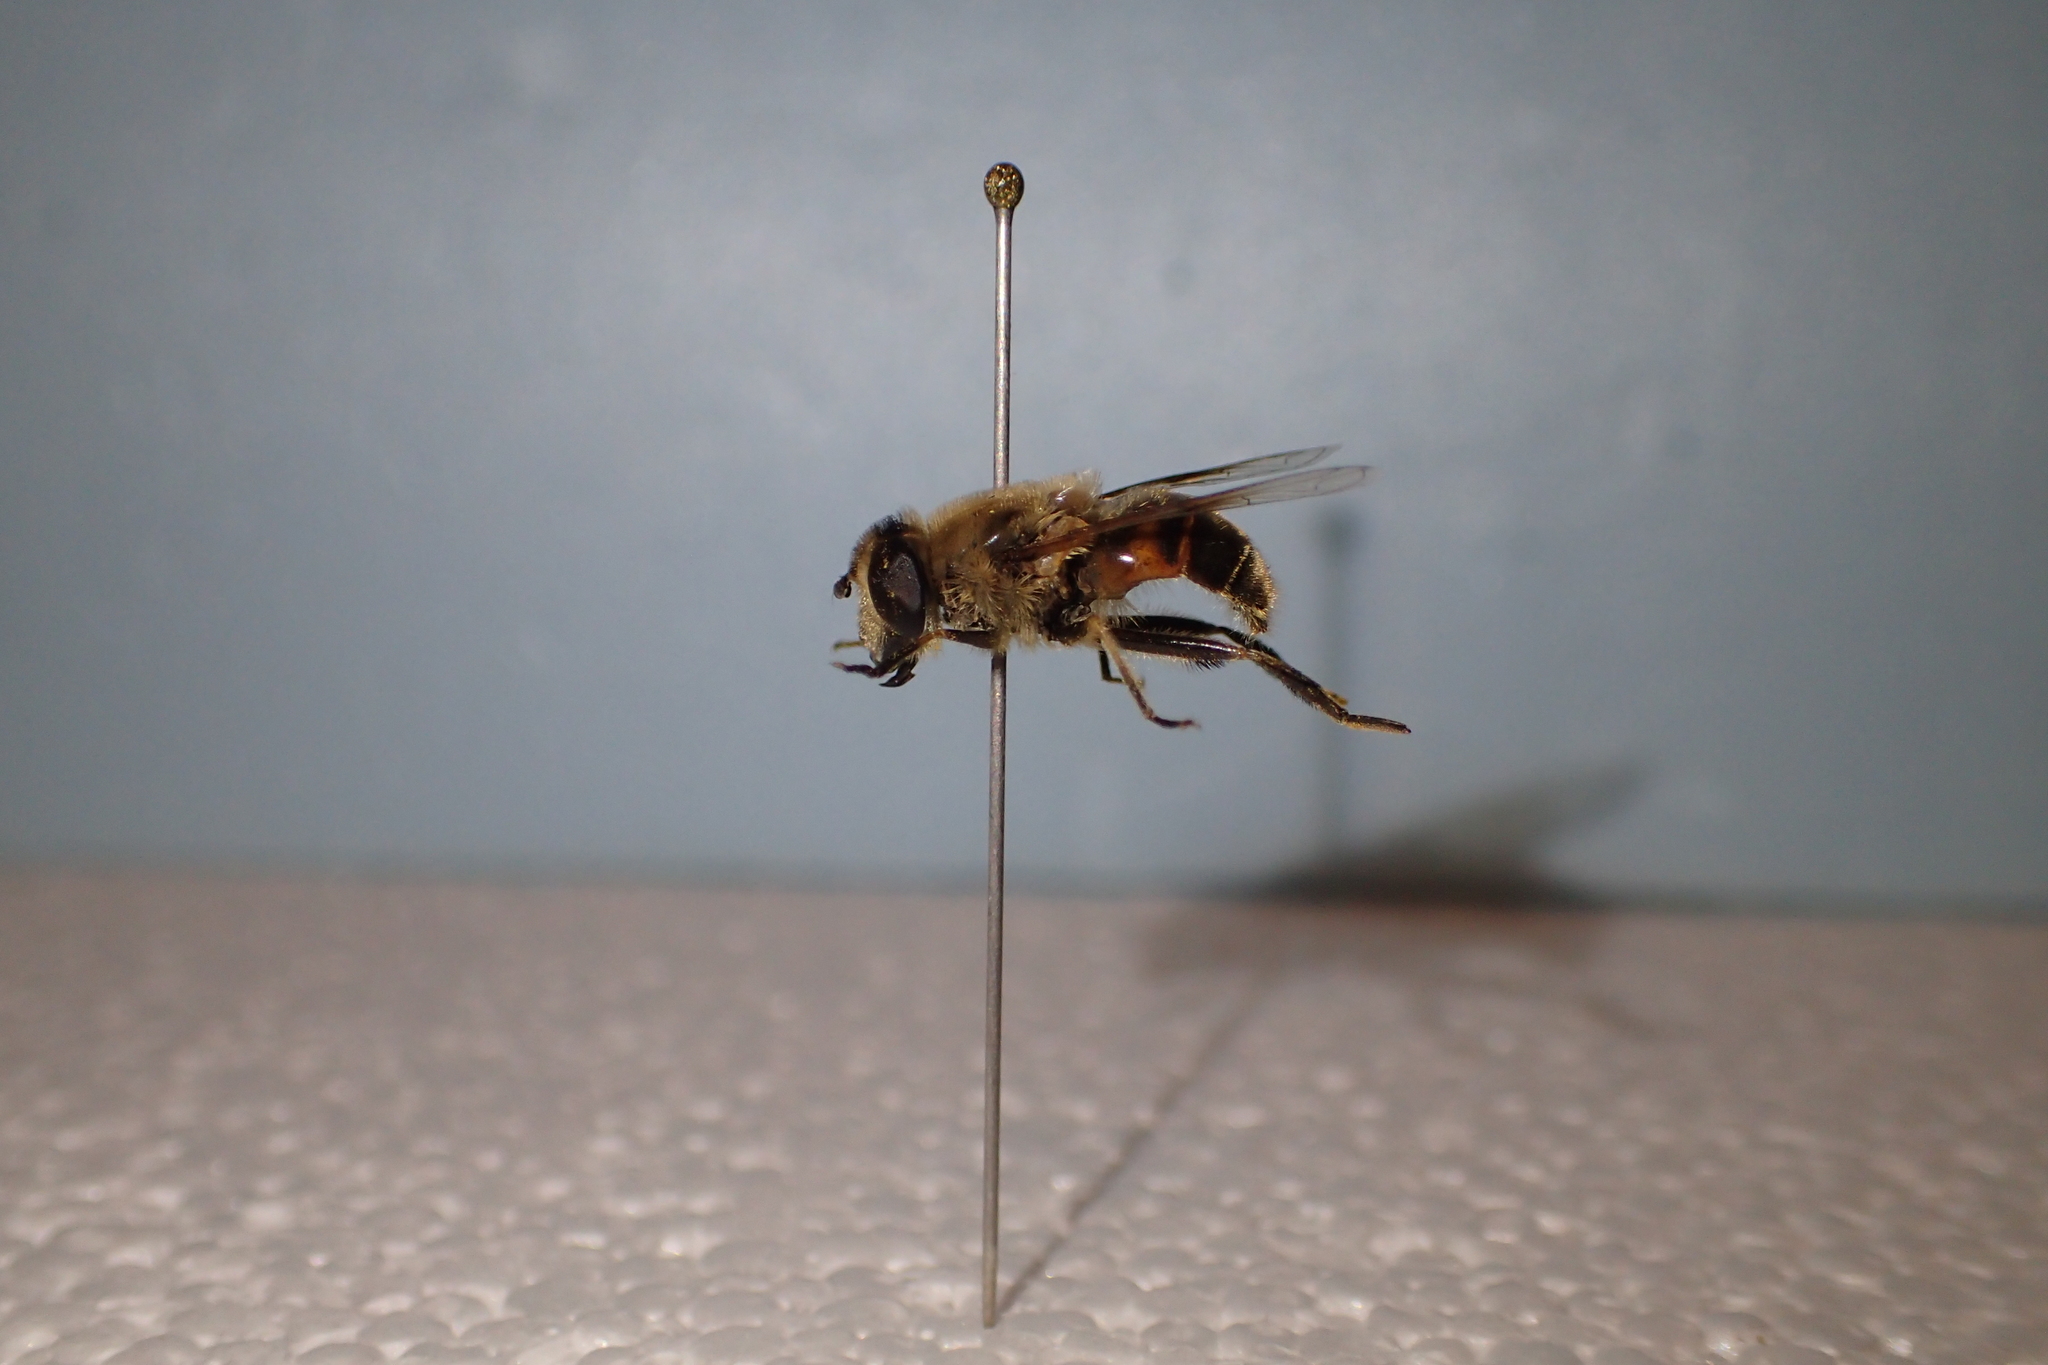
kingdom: Animalia
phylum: Arthropoda
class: Insecta
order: Diptera
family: Syrphidae
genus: Eristalis
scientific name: Eristalis tenax
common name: Drone fly
